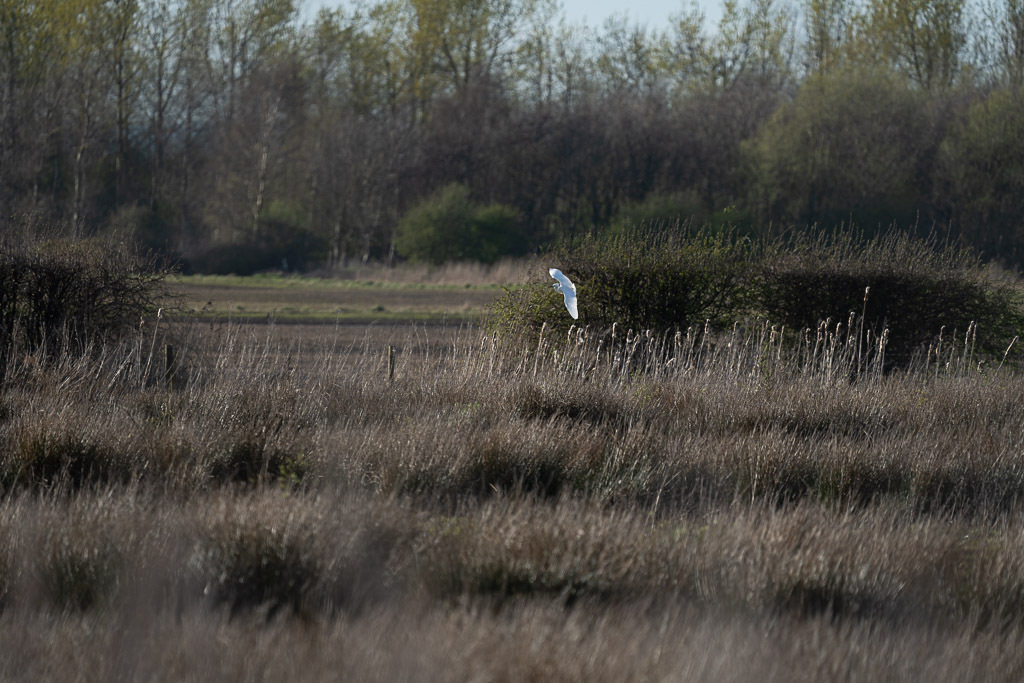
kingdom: Animalia
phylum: Chordata
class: Aves
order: Pelecaniformes
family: Ardeidae
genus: Egretta
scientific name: Egretta garzetta
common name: Little egret
